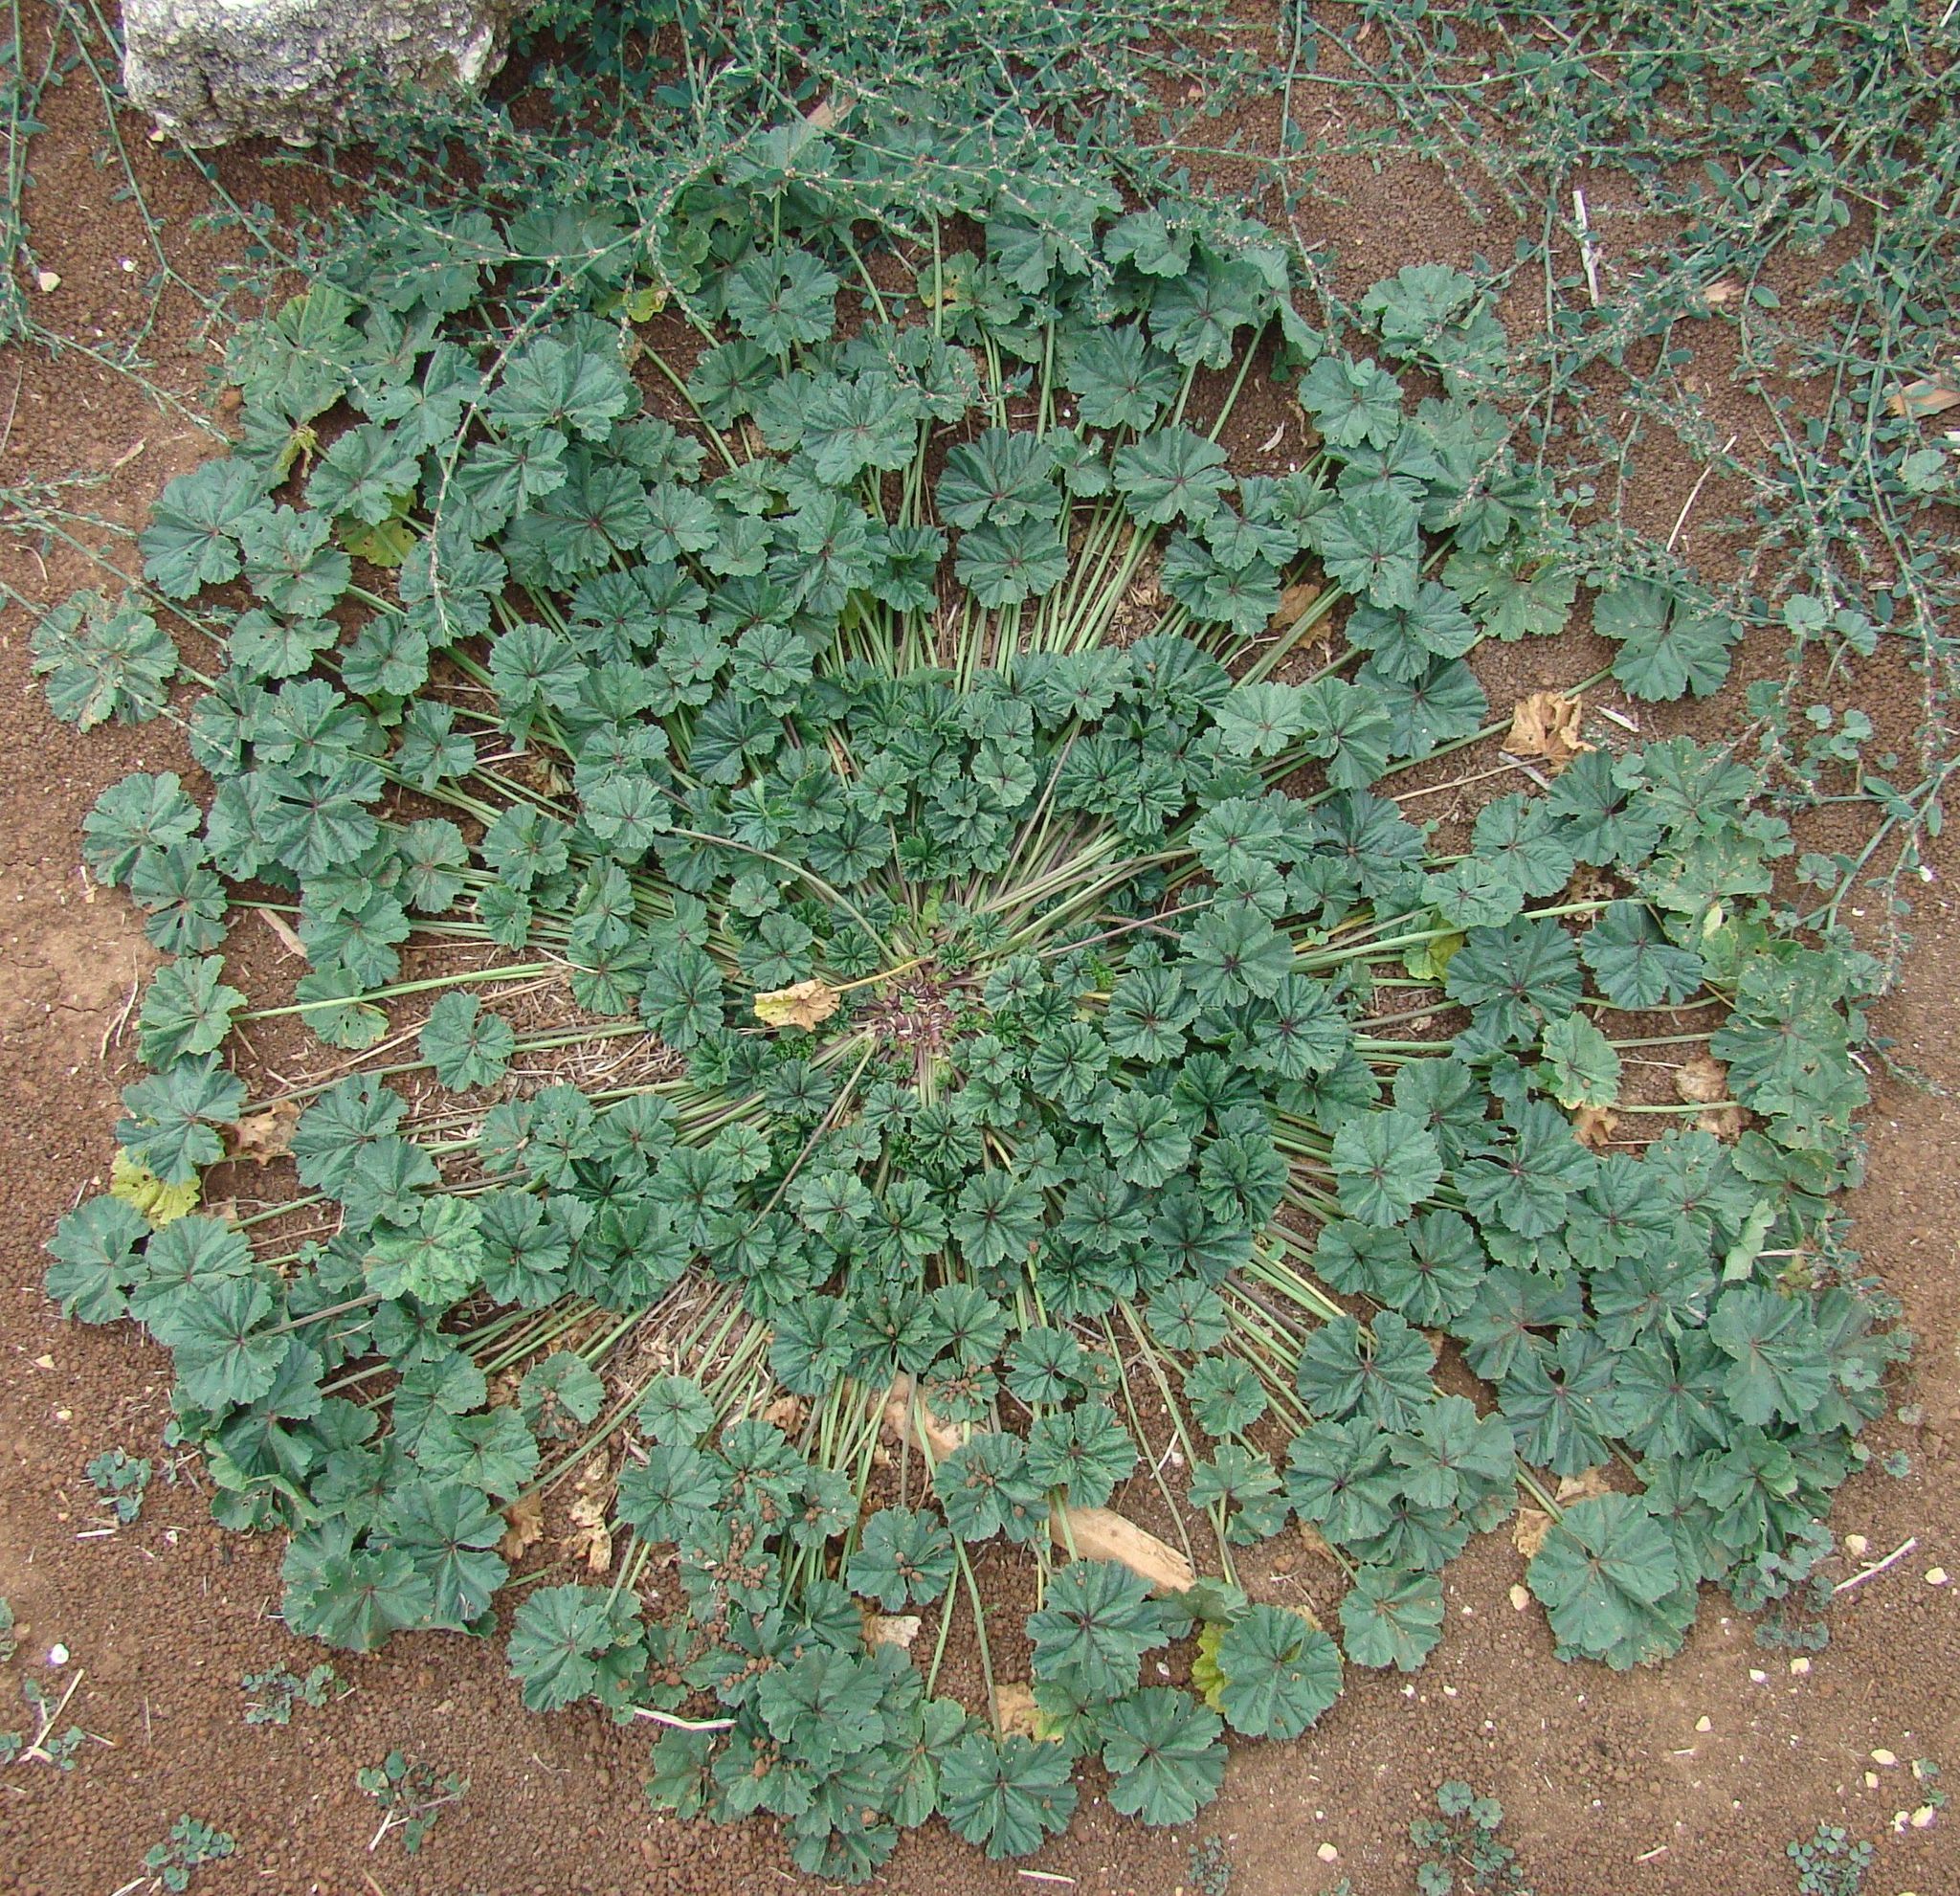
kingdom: Plantae
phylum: Tracheophyta
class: Magnoliopsida
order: Malvales
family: Malvaceae
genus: Malva
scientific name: Malva sylvestris
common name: Common mallow
